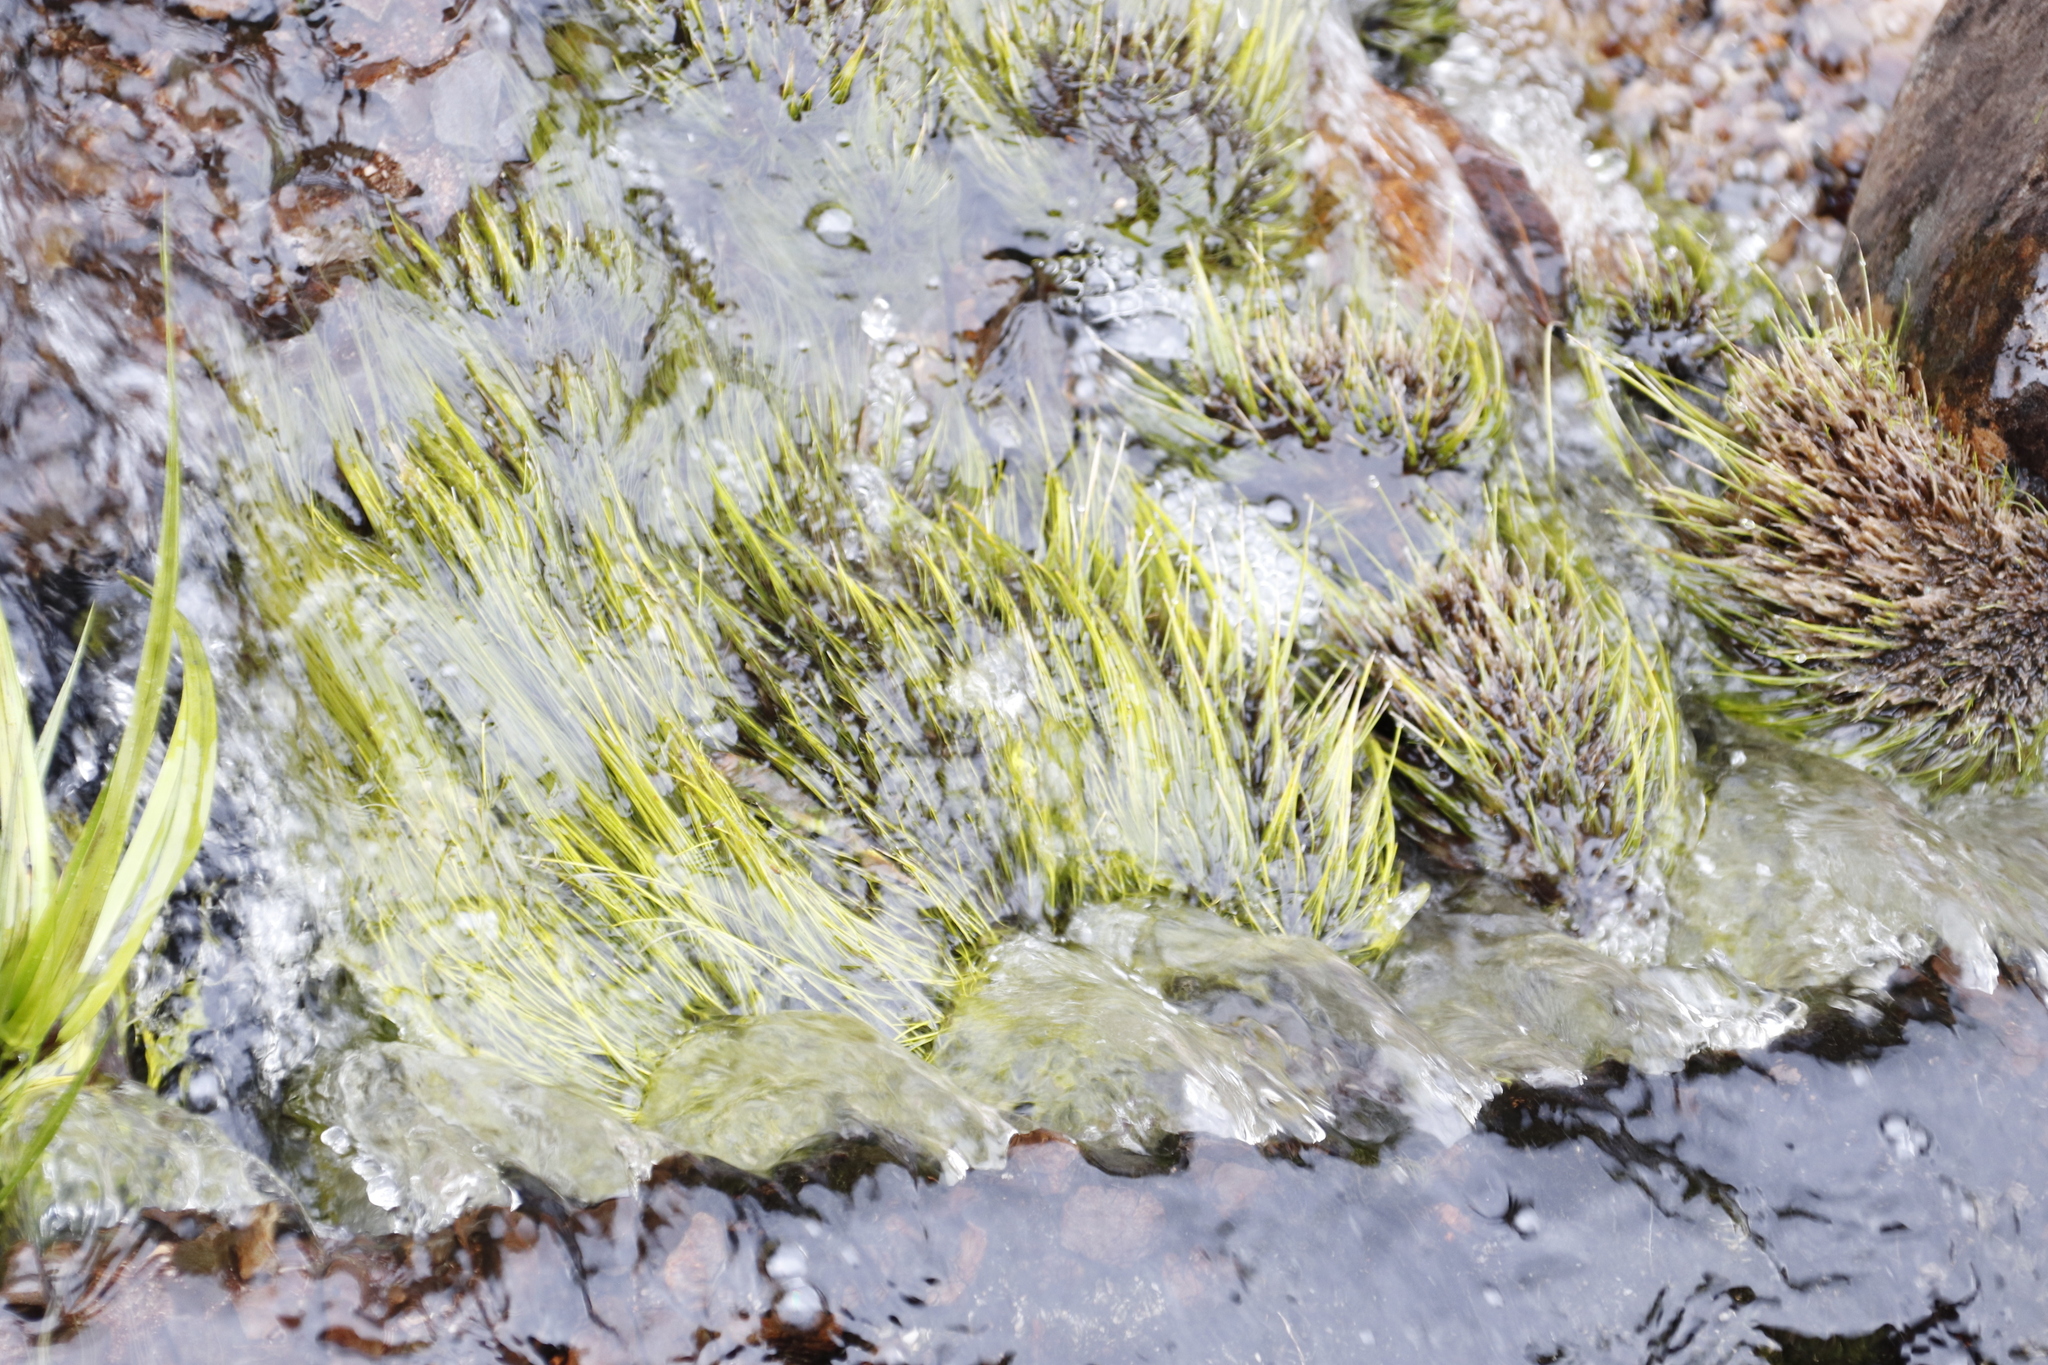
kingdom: Plantae
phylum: Tracheophyta
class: Liliopsida
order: Poales
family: Cyperaceae
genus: Isolepis
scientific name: Isolepis digitata
